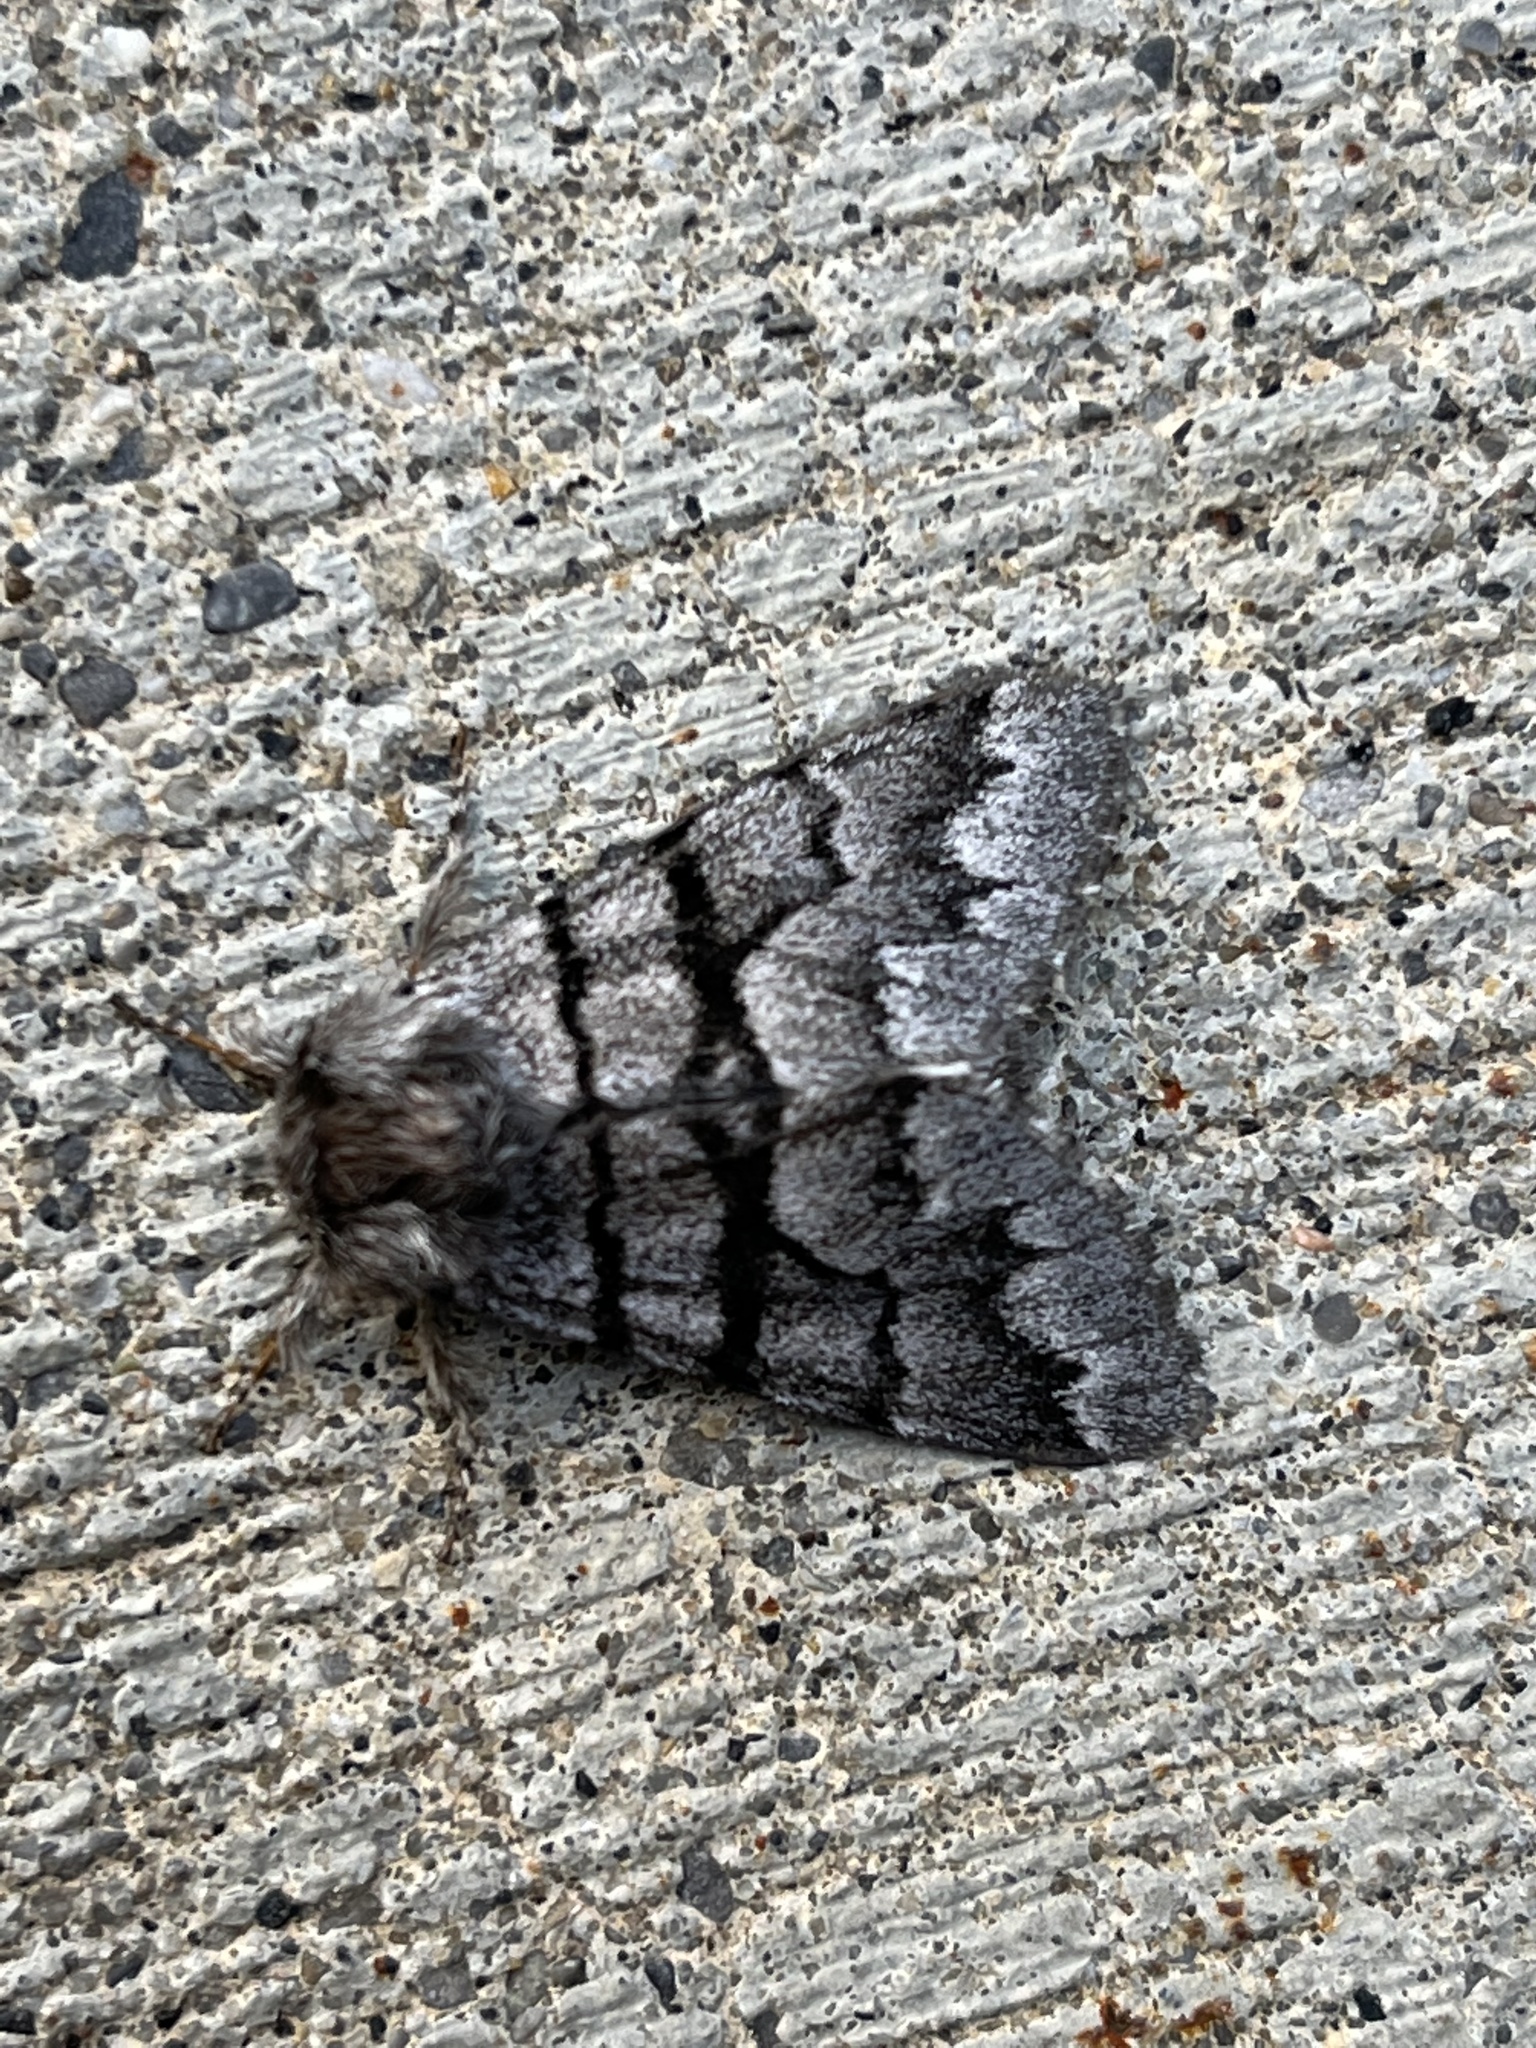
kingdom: Animalia
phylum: Arthropoda
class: Insecta
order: Lepidoptera
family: Noctuidae
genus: Panthea
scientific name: Panthea furcilla
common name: Eastern panthea moth
